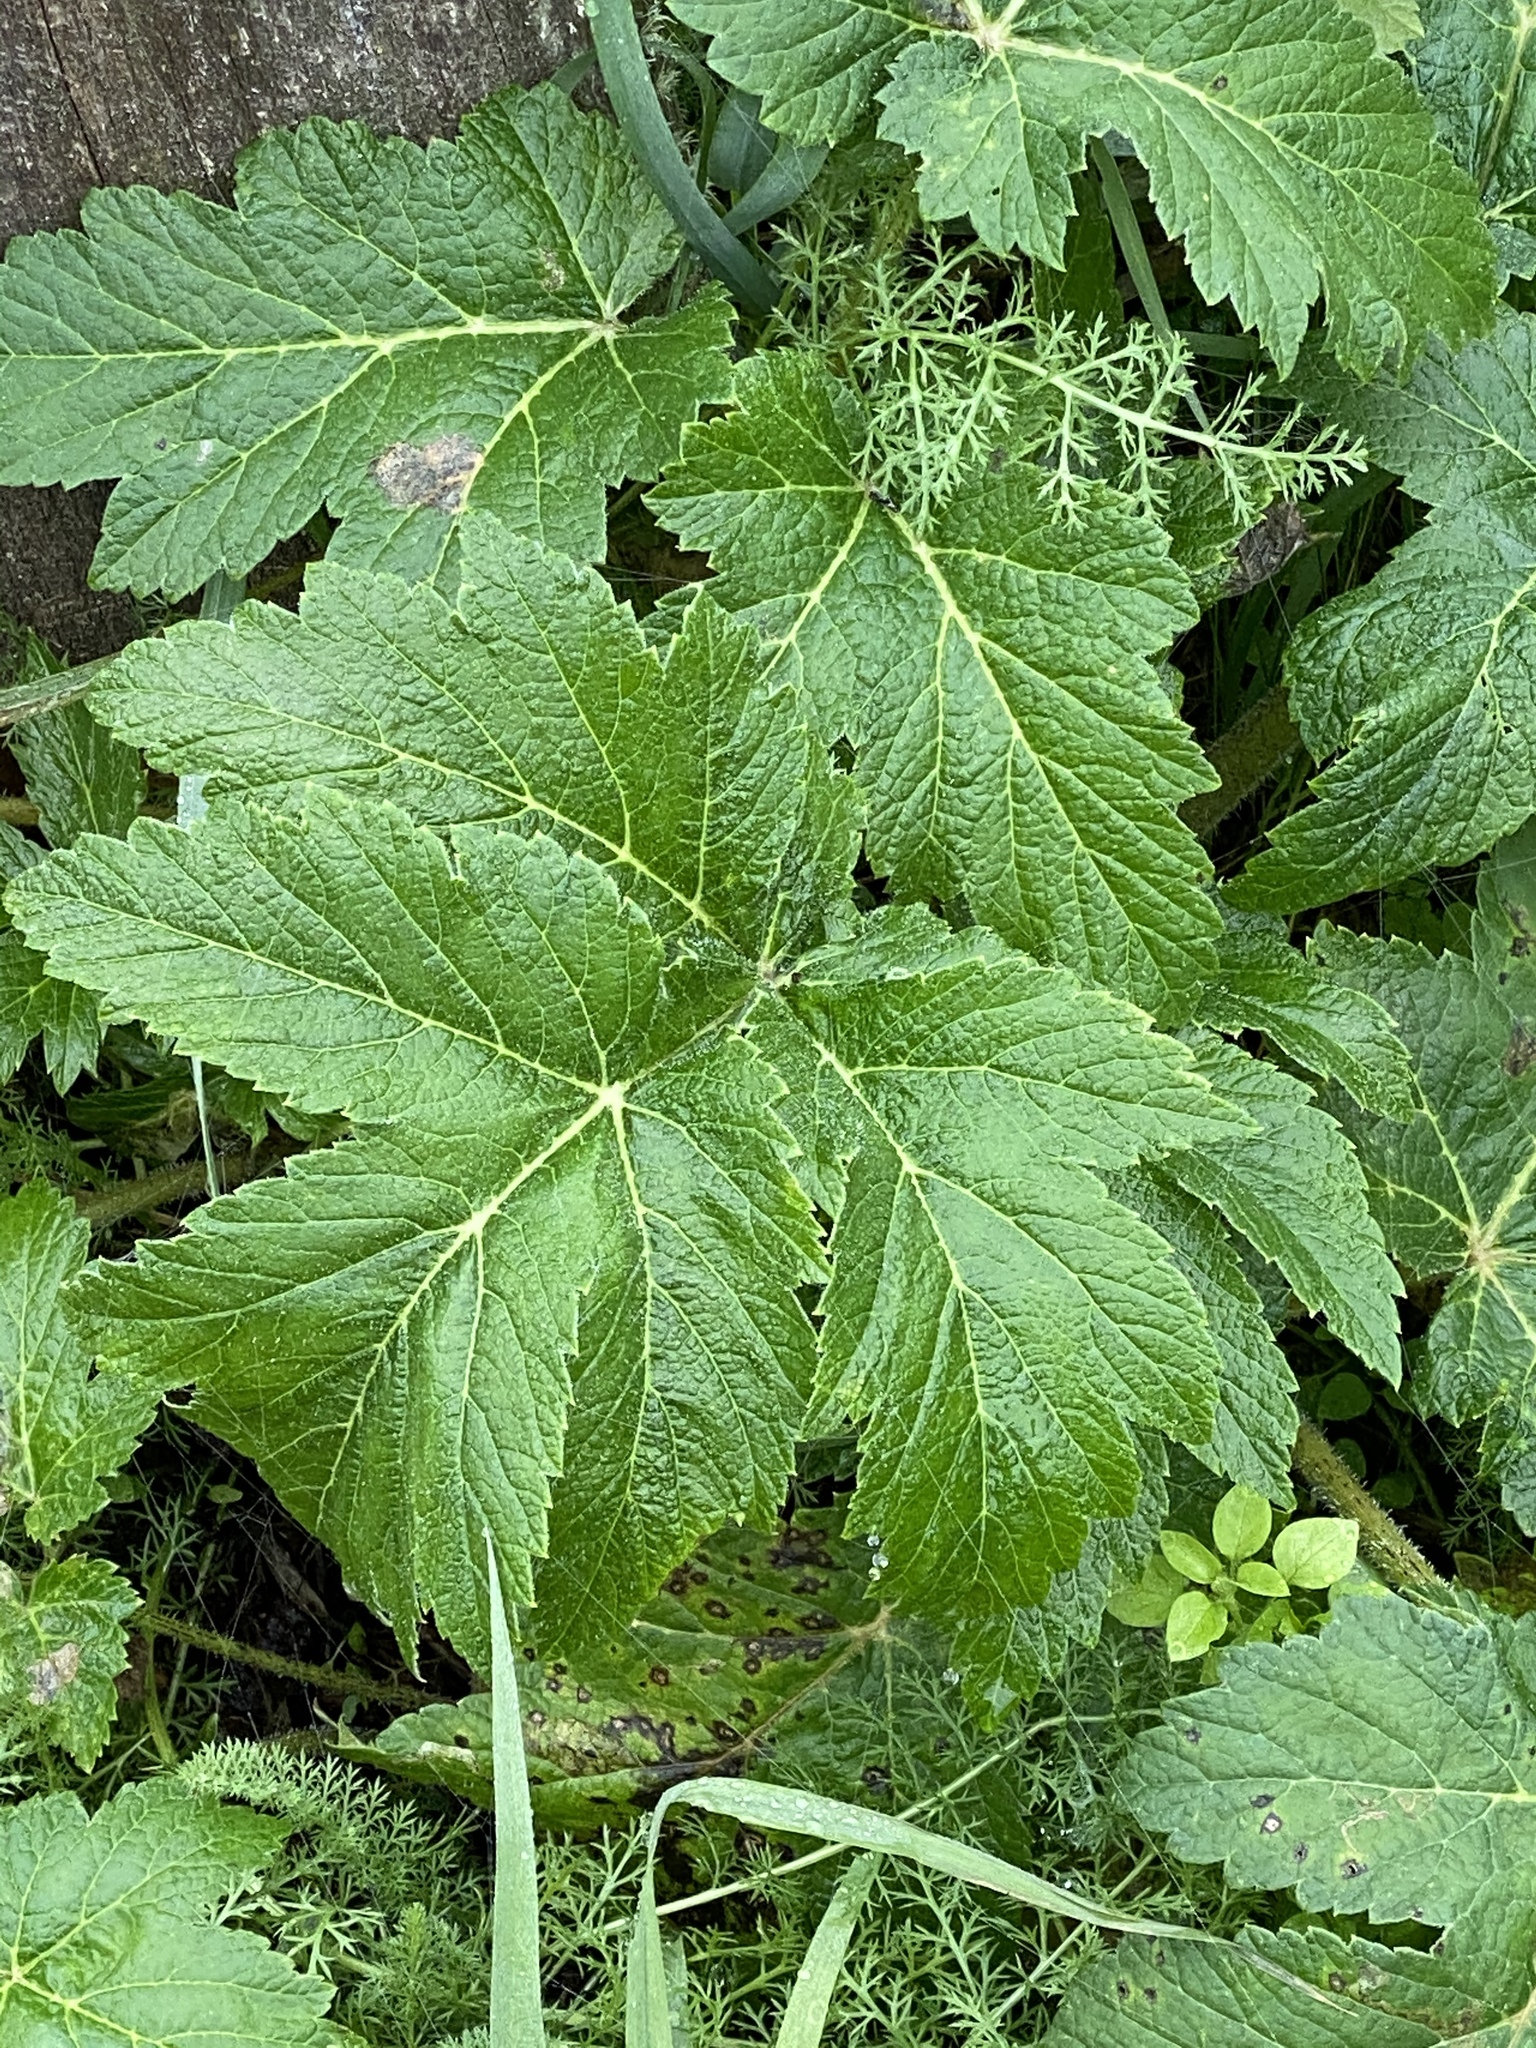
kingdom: Plantae
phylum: Tracheophyta
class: Magnoliopsida
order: Apiales
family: Apiaceae
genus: Heracleum
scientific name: Heracleum maximum
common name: American cow parsnip
